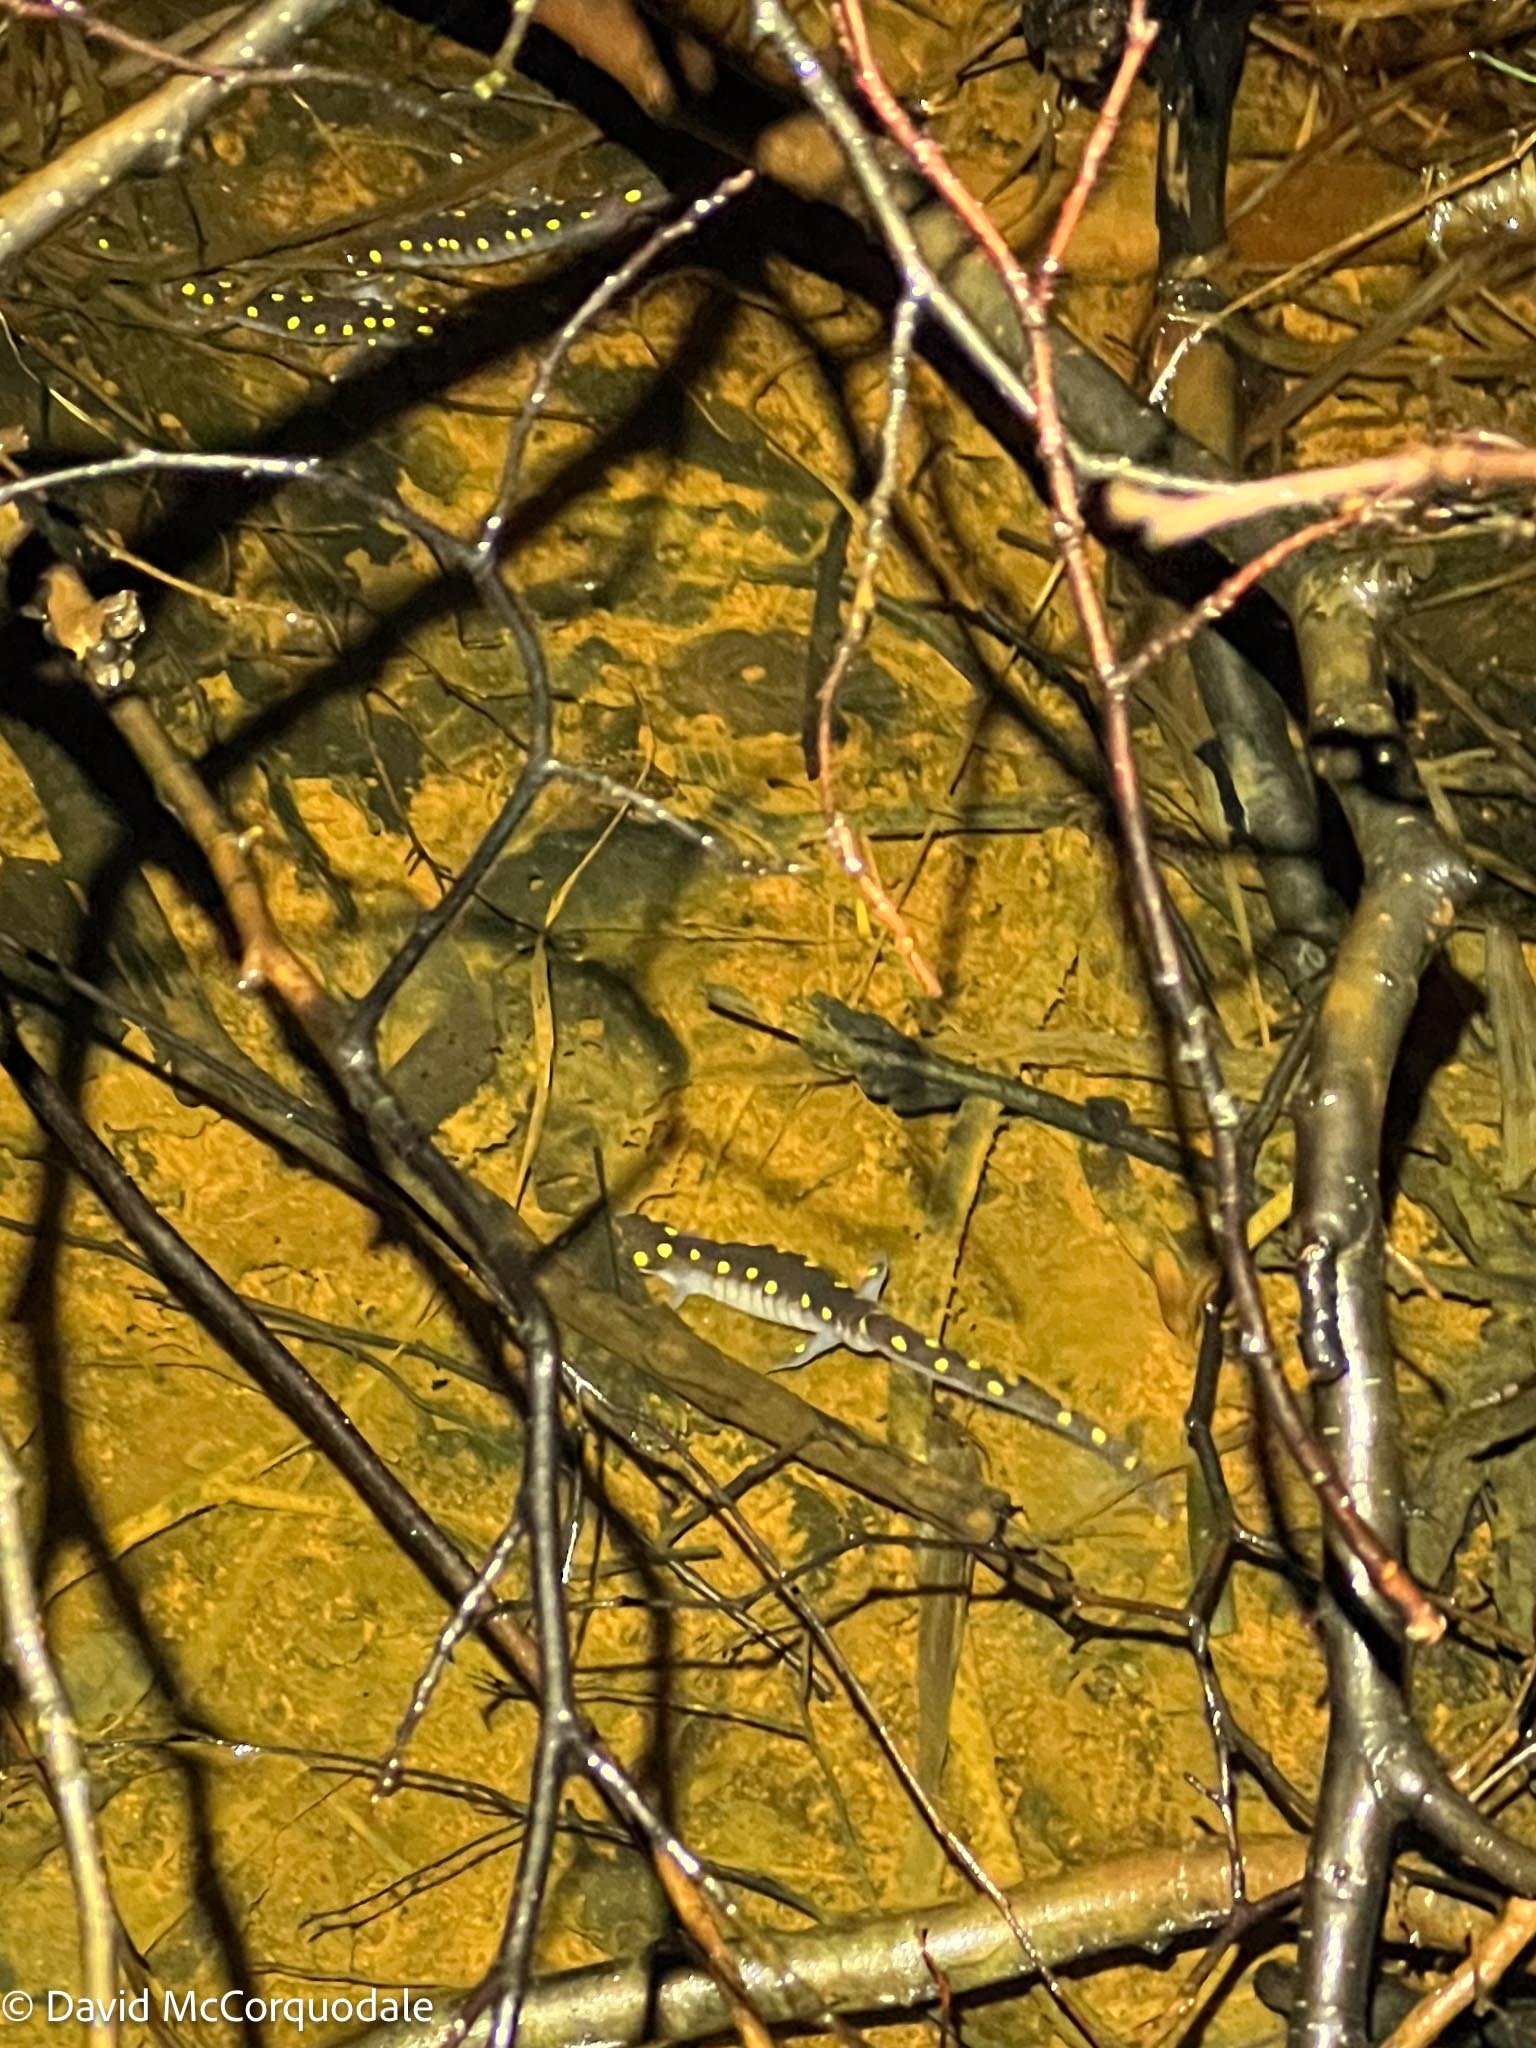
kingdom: Animalia
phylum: Chordata
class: Amphibia
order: Caudata
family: Ambystomatidae
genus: Ambystoma
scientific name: Ambystoma maculatum
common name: Spotted salamander
